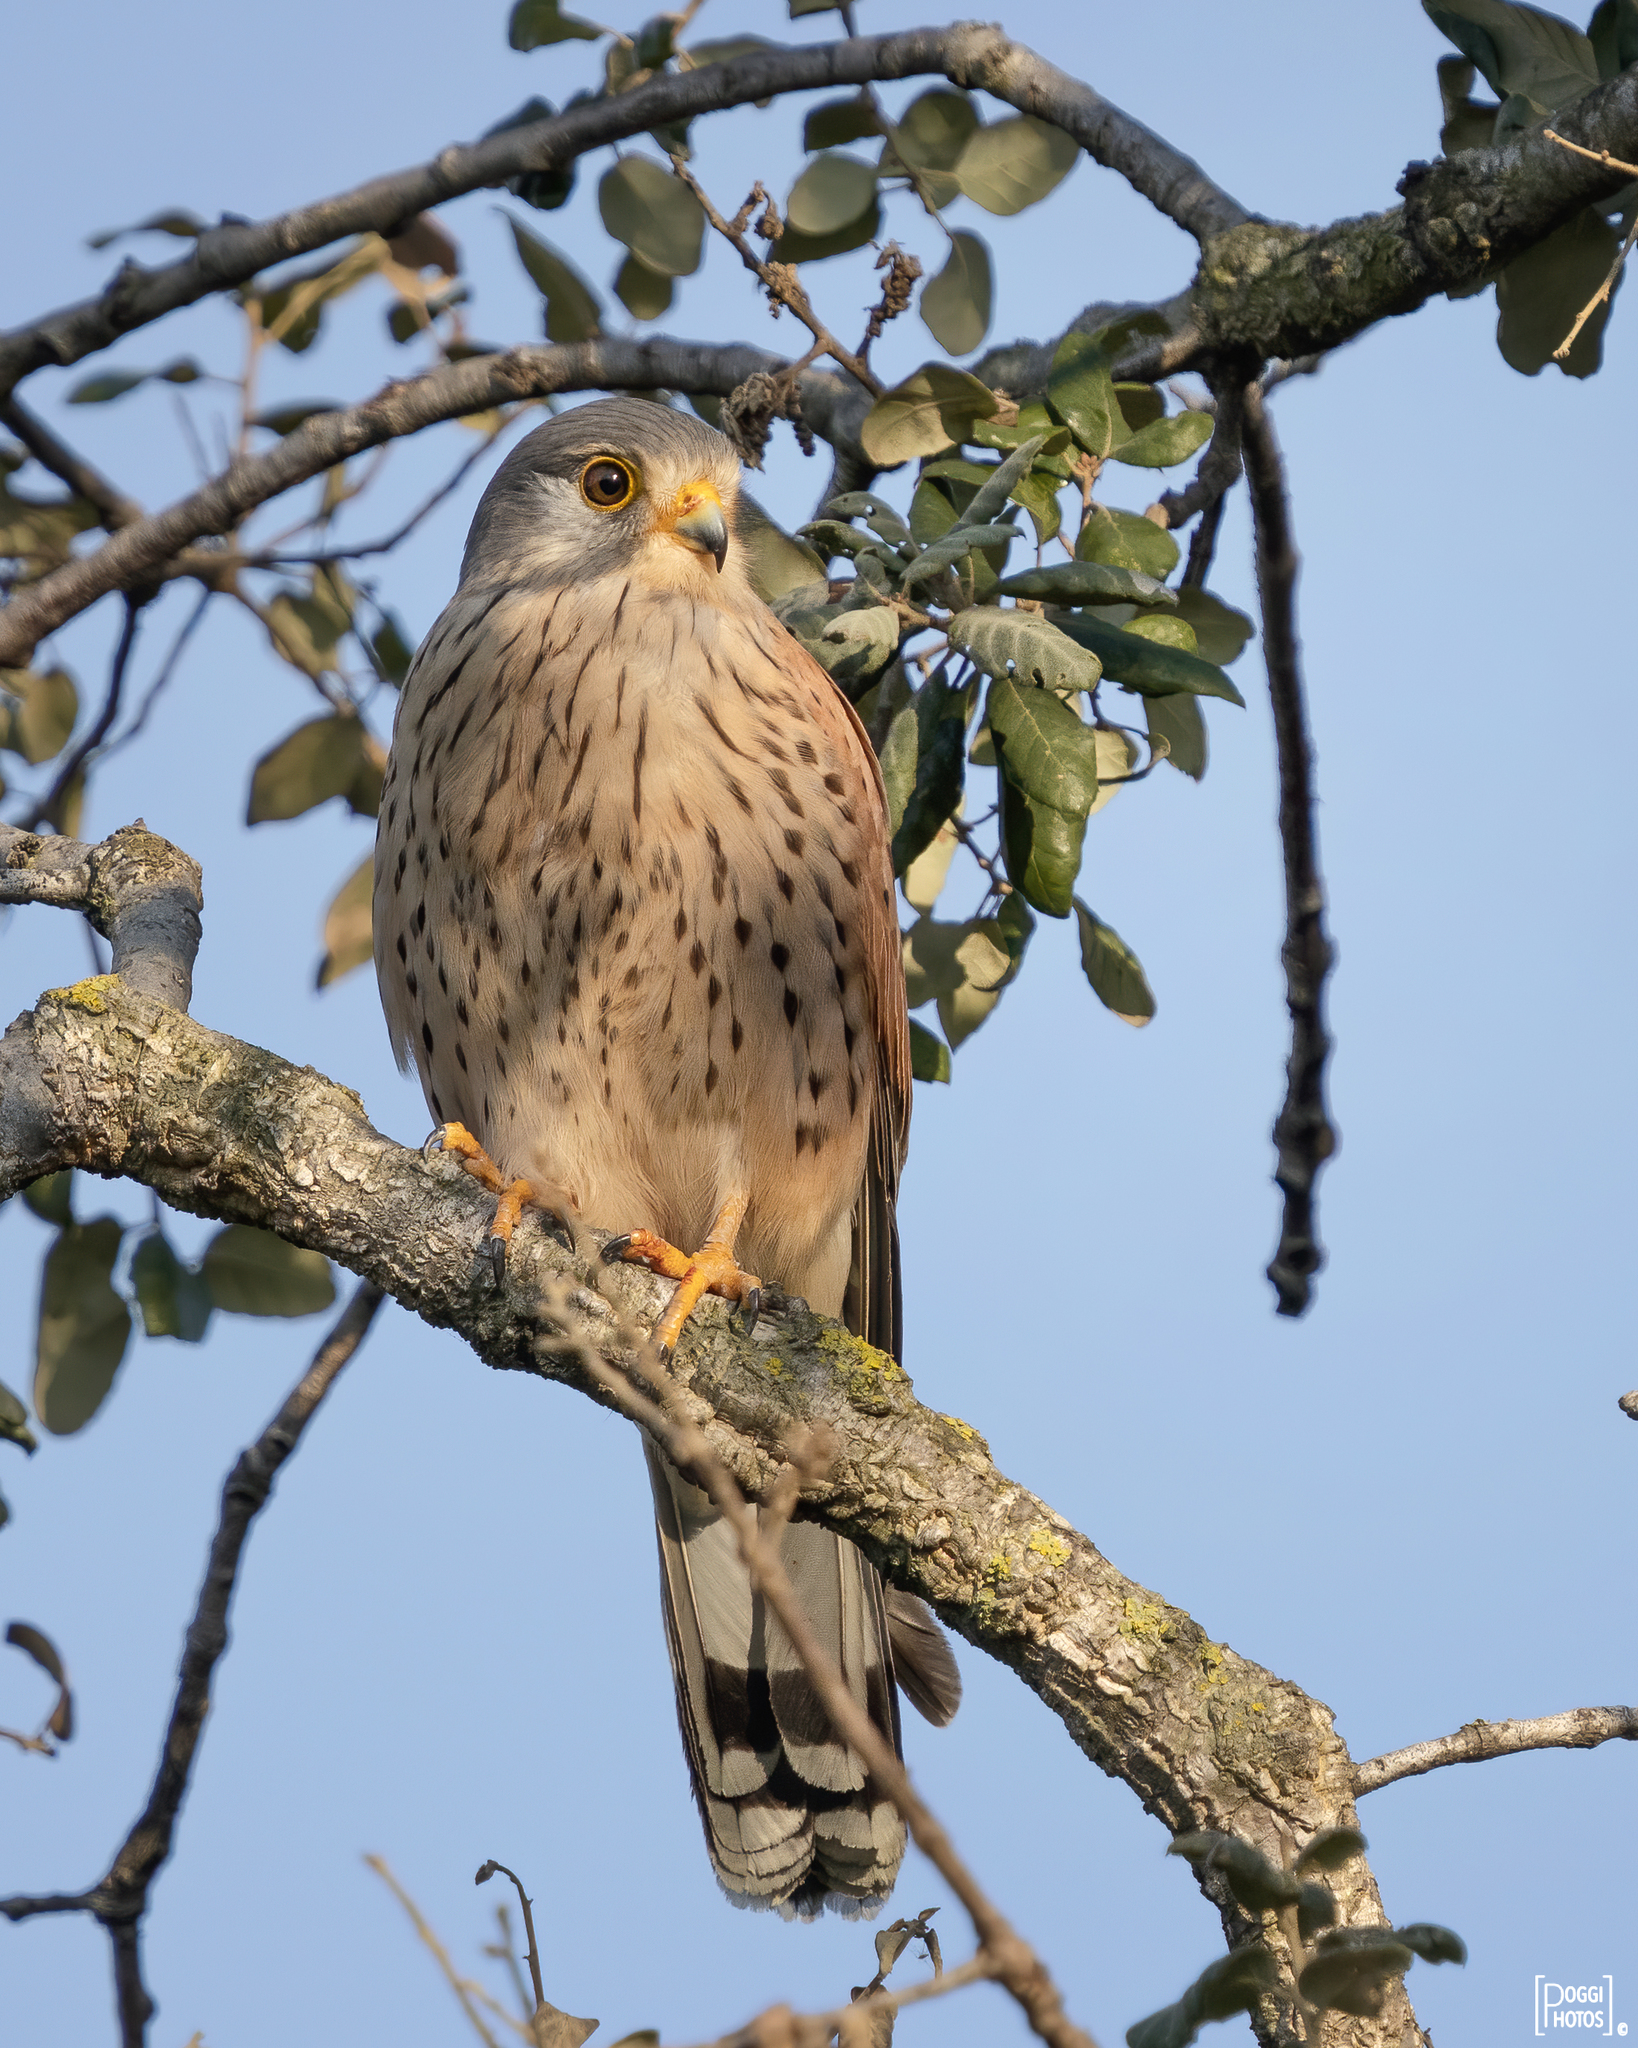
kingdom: Animalia
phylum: Chordata
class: Aves
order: Falconiformes
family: Falconidae
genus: Falco
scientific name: Falco tinnunculus
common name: Common kestrel
